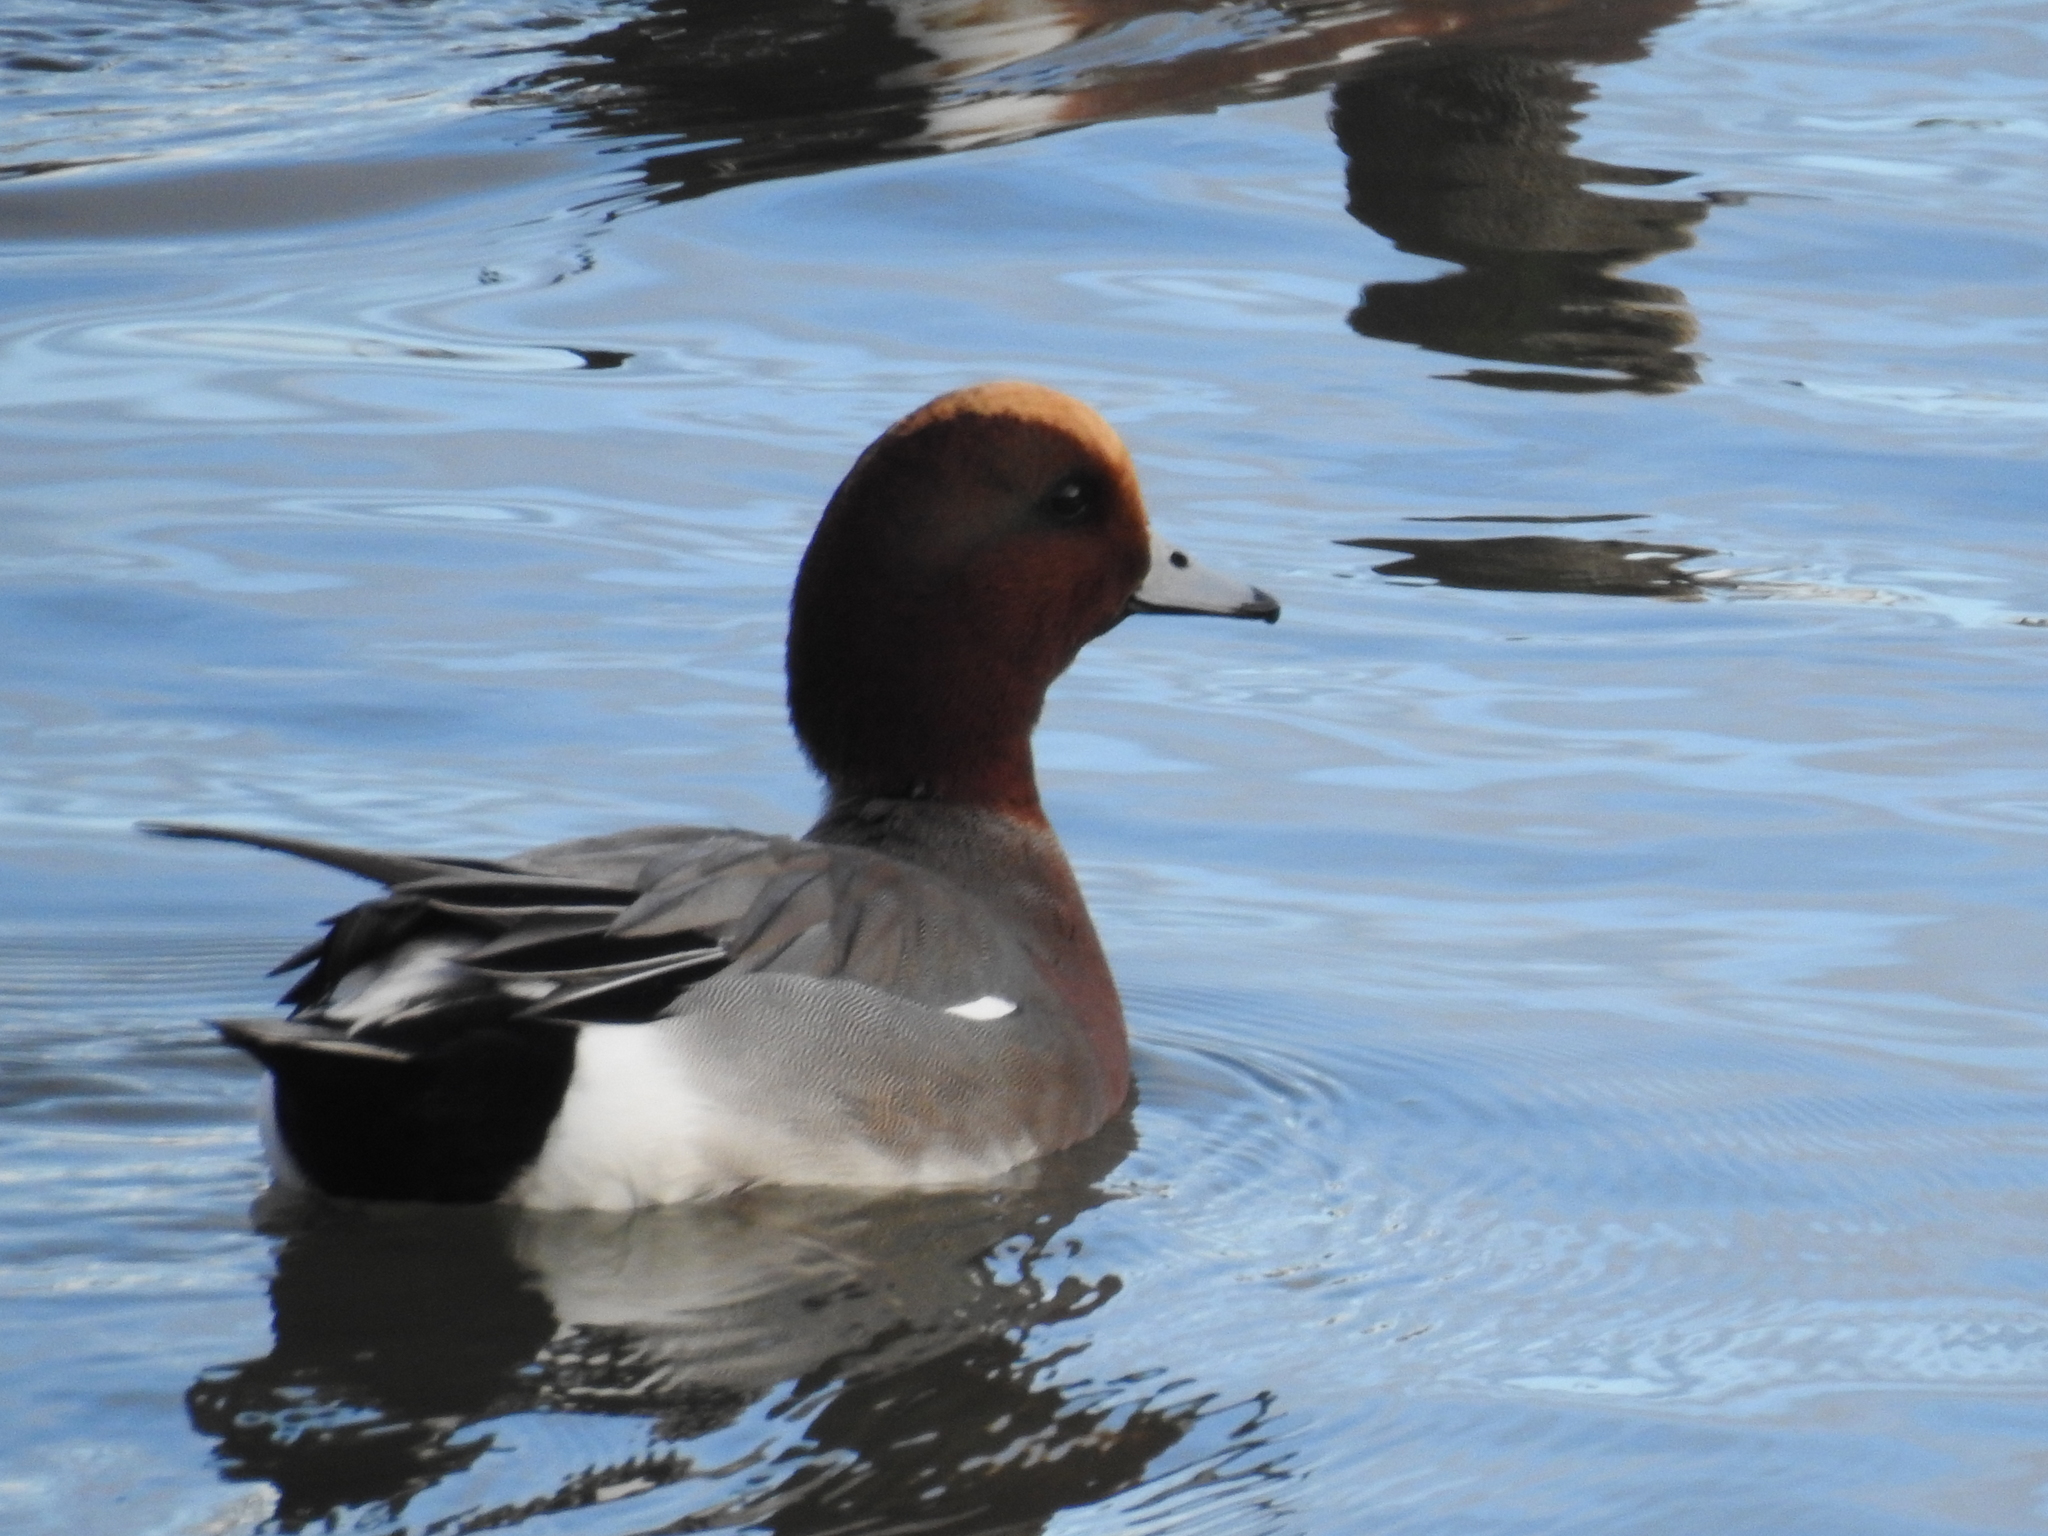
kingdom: Animalia
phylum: Chordata
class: Aves
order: Anseriformes
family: Anatidae
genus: Mareca
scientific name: Mareca penelope
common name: Eurasian wigeon
